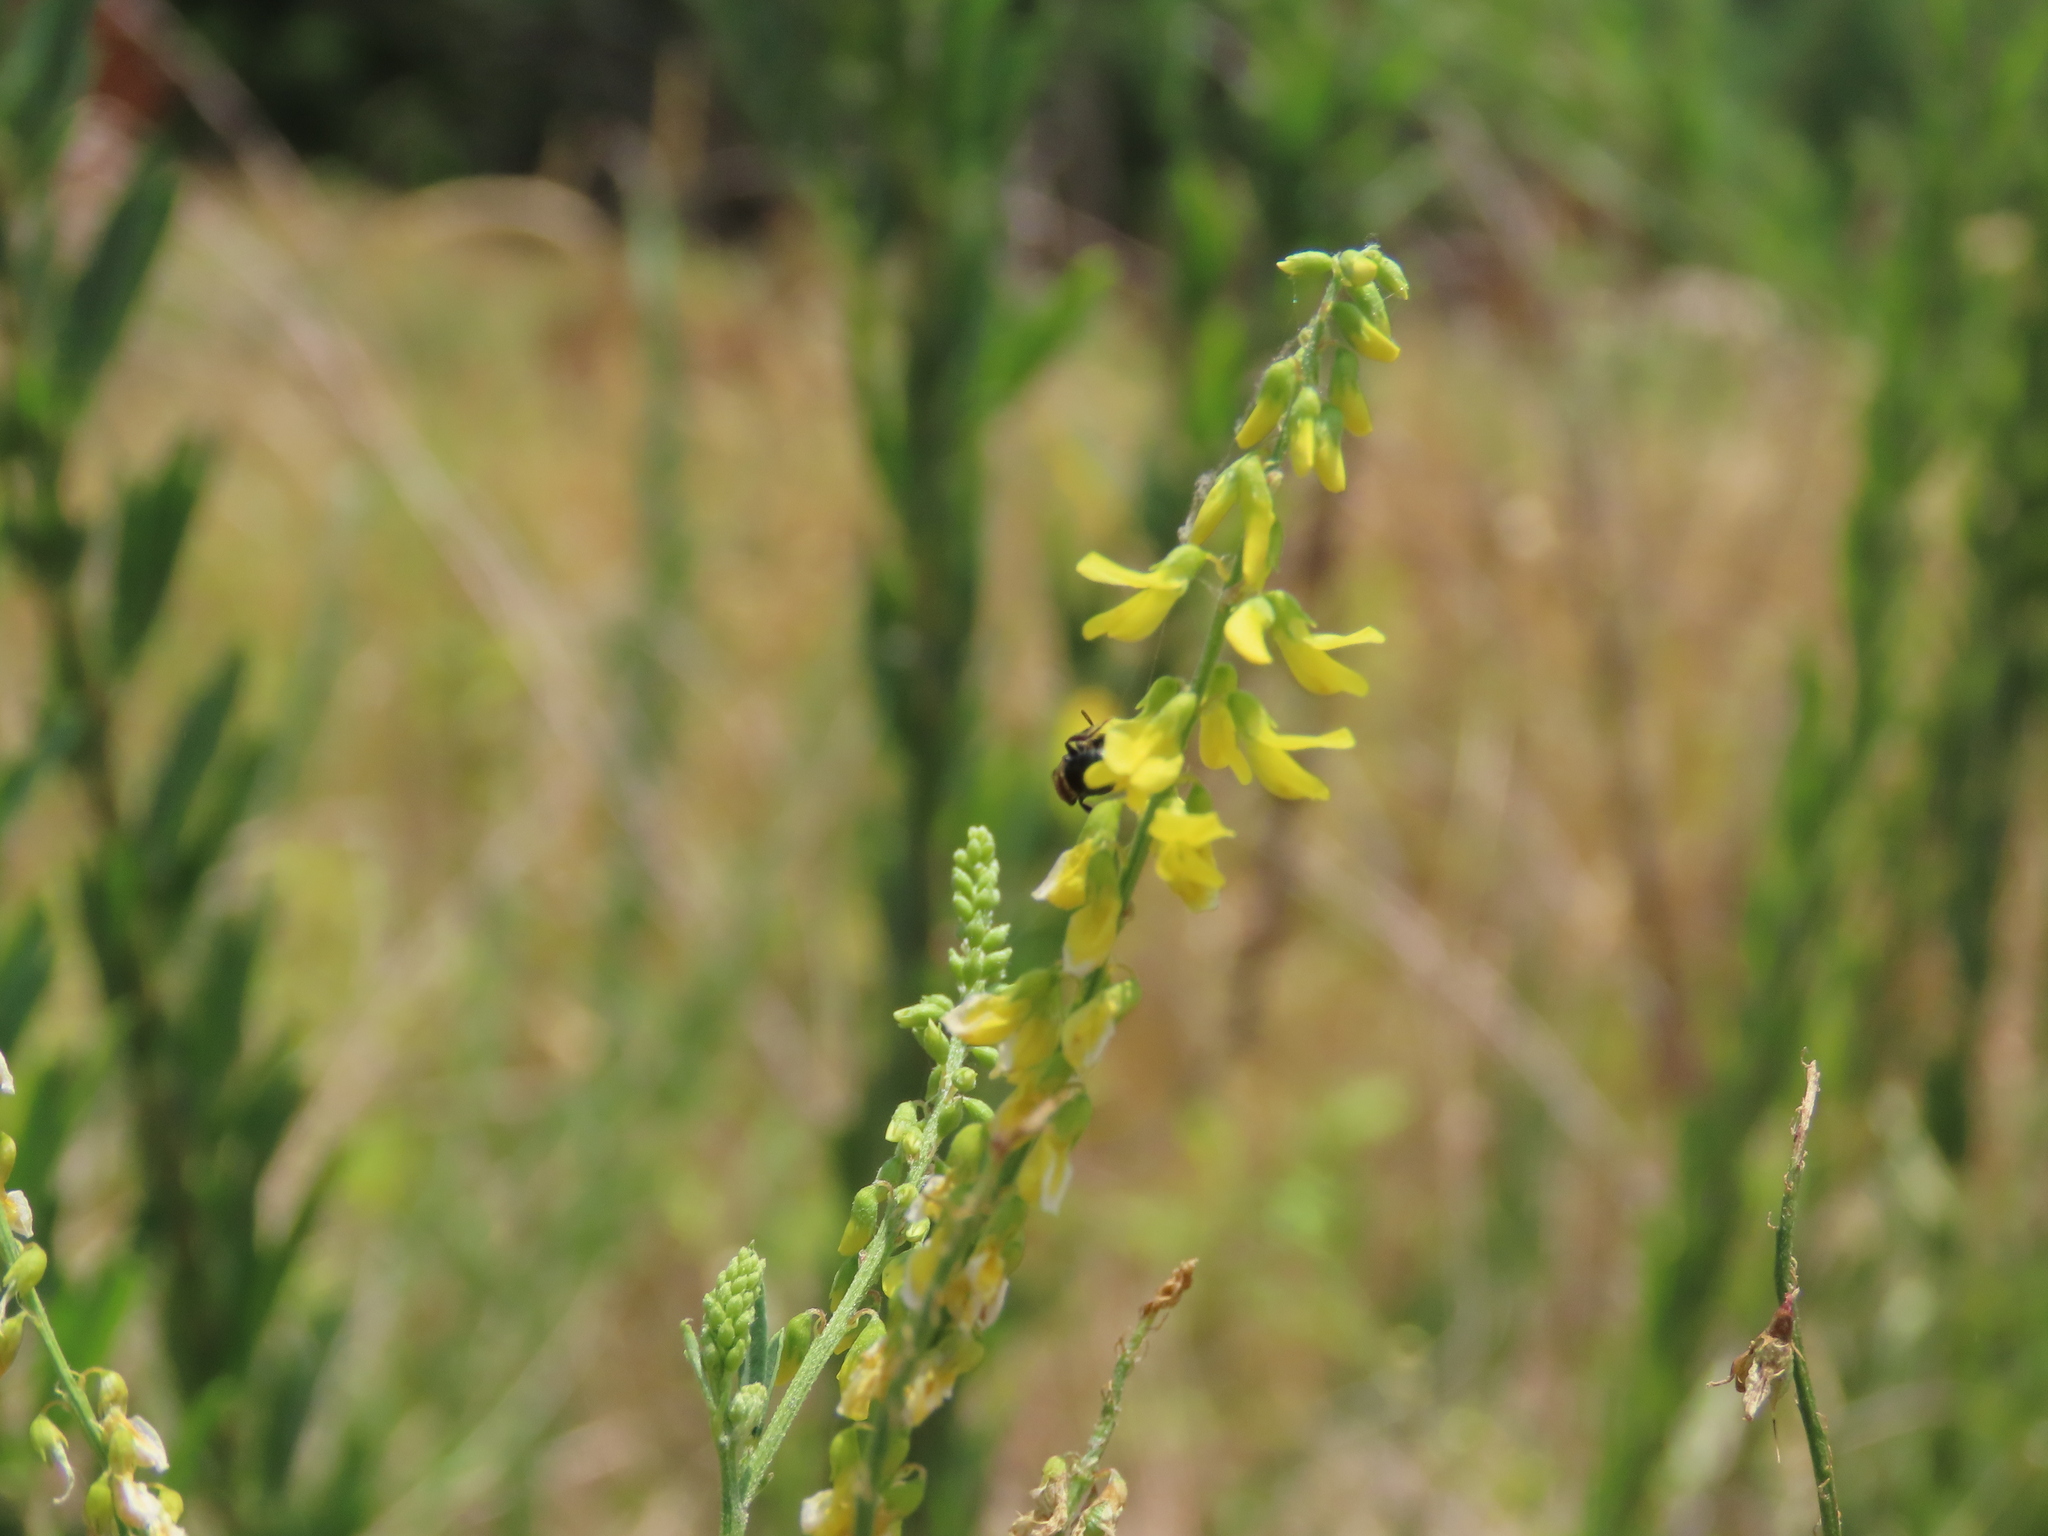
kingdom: Plantae
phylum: Tracheophyta
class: Magnoliopsida
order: Fabales
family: Fabaceae
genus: Melilotus
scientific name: Melilotus officinalis
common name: Sweetclover
